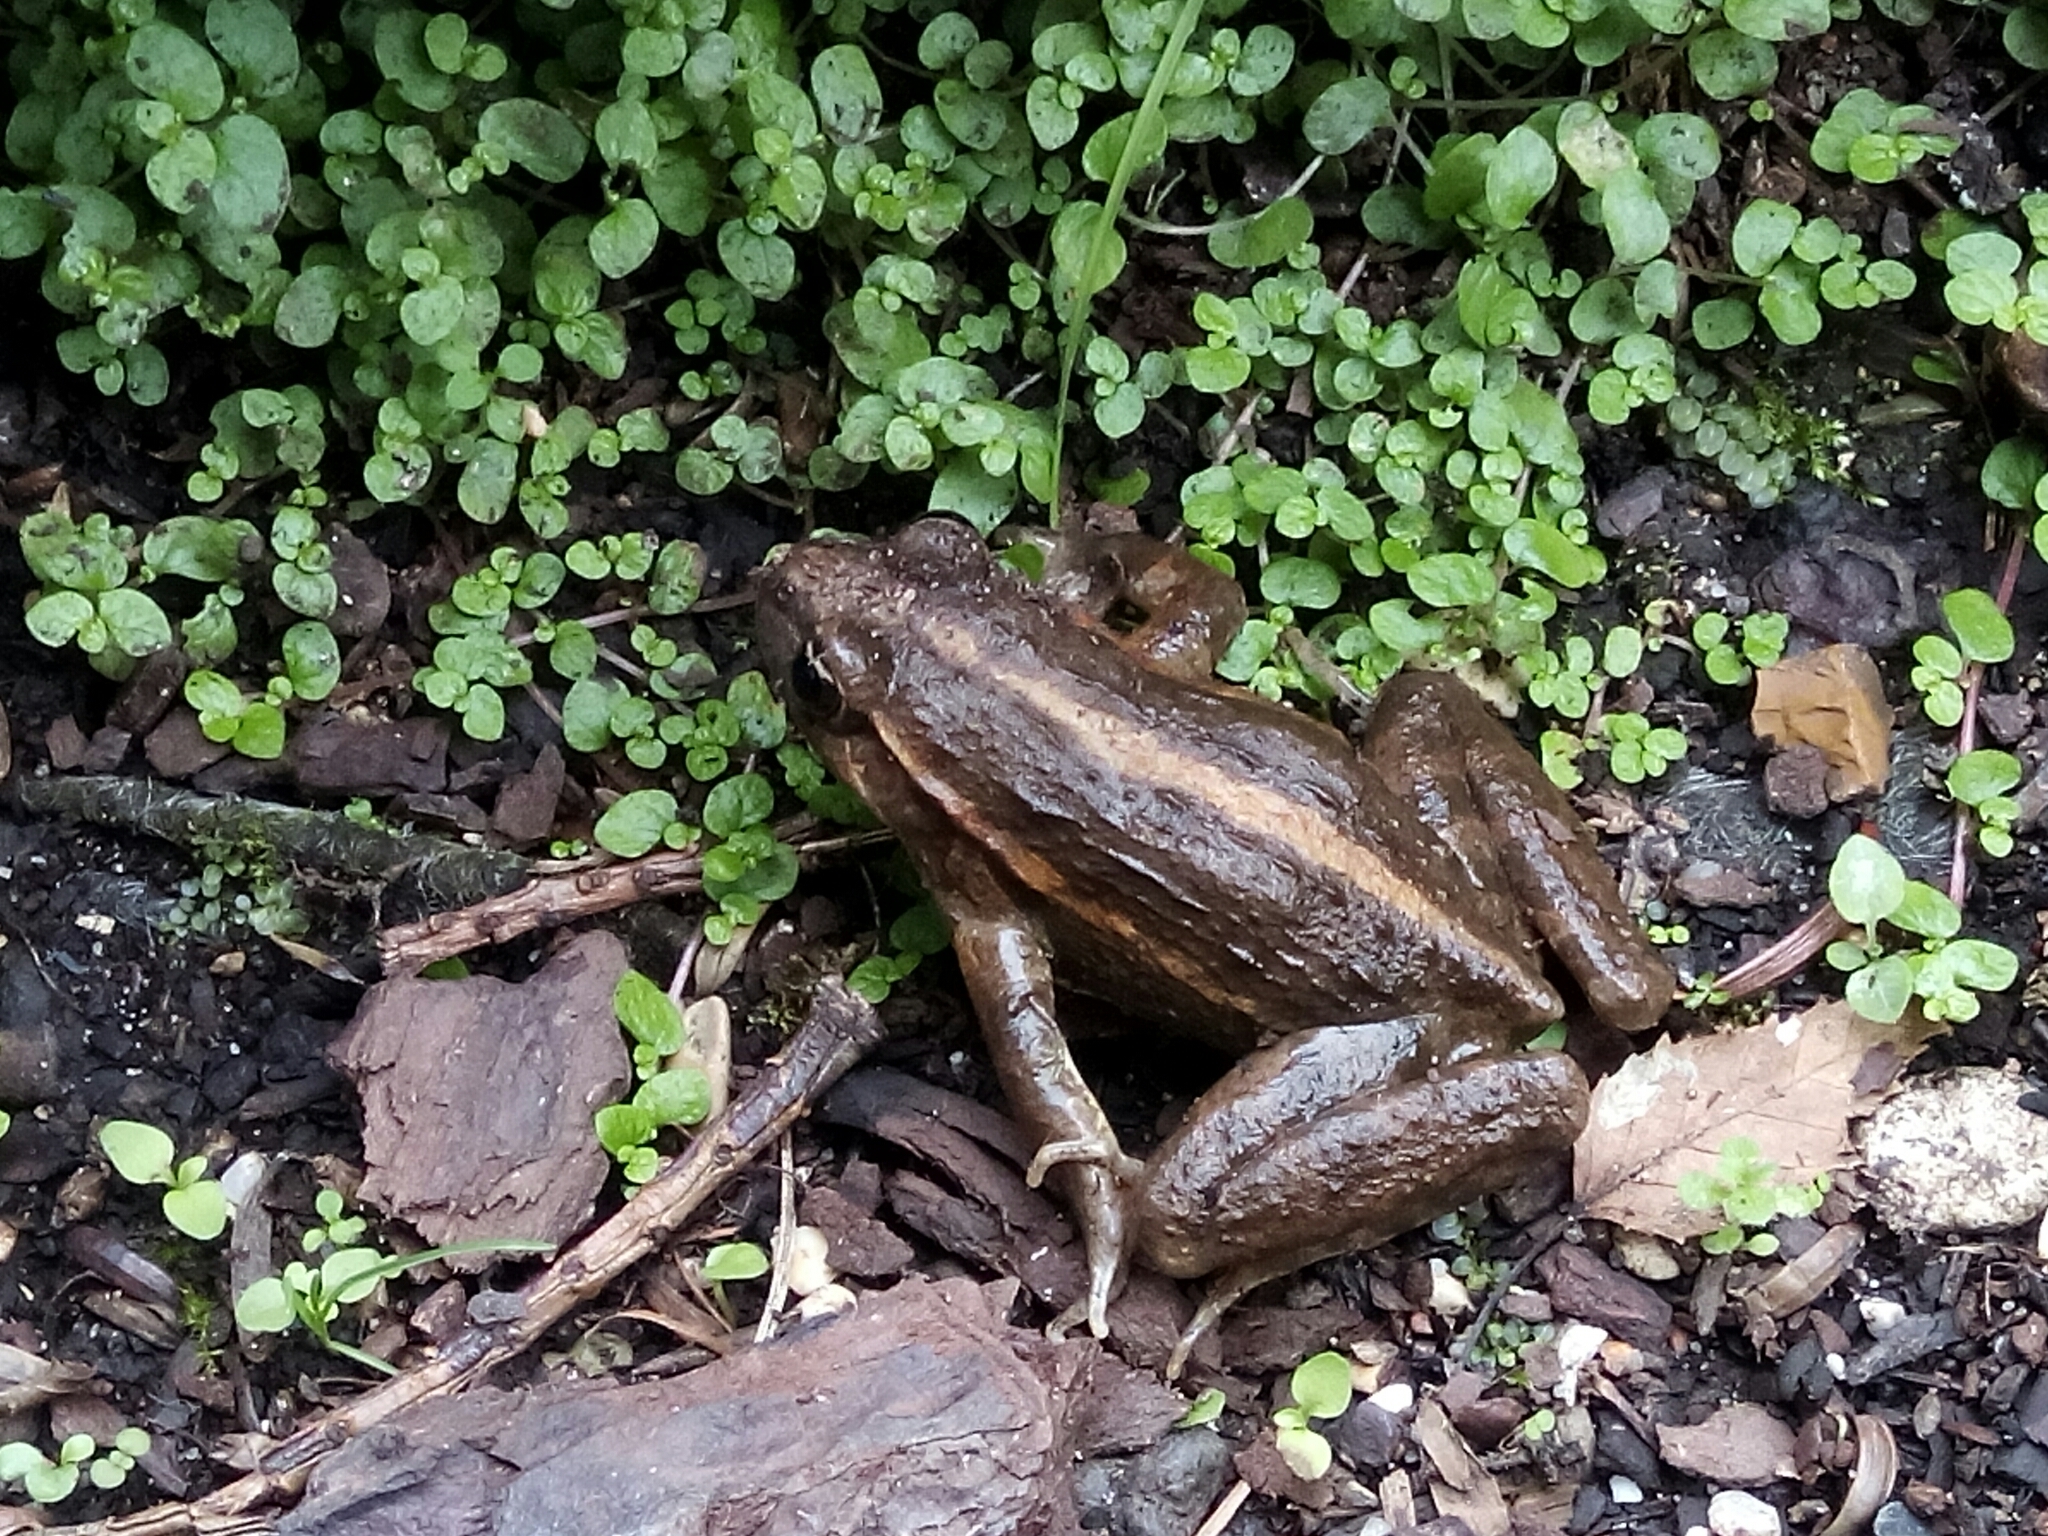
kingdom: Animalia
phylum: Chordata
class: Amphibia
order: Anura
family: Alytidae
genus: Discoglossus
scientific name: Discoglossus pictus
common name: Painted frog
